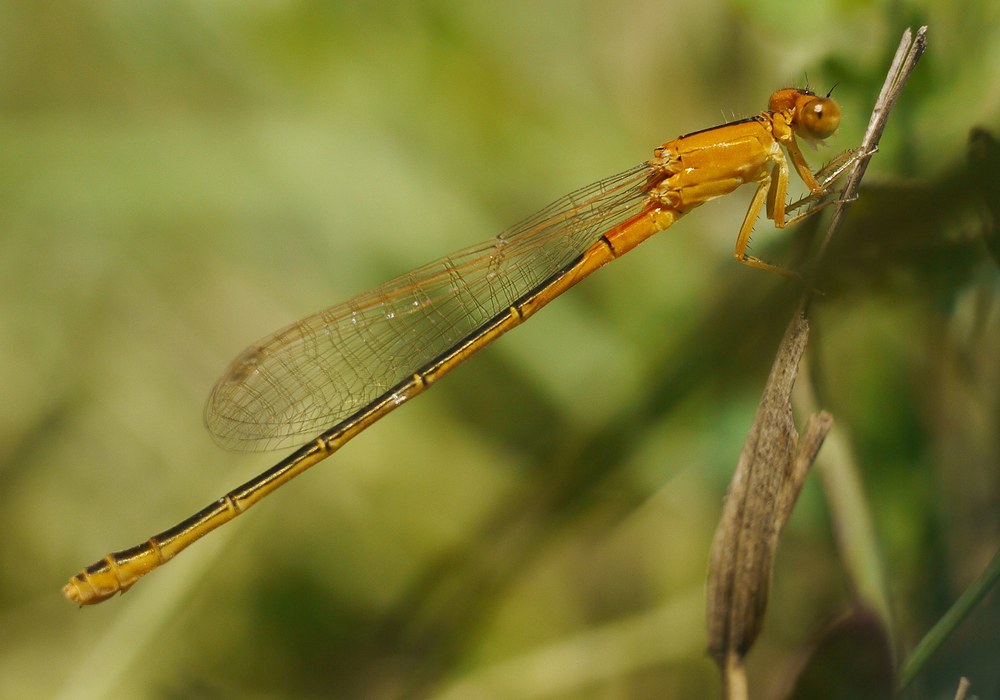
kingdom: Animalia
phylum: Arthropoda
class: Insecta
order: Odonata
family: Coenagrionidae
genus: Ischnura
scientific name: Ischnura pumilio
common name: Scarce blue-tailed damselfly
